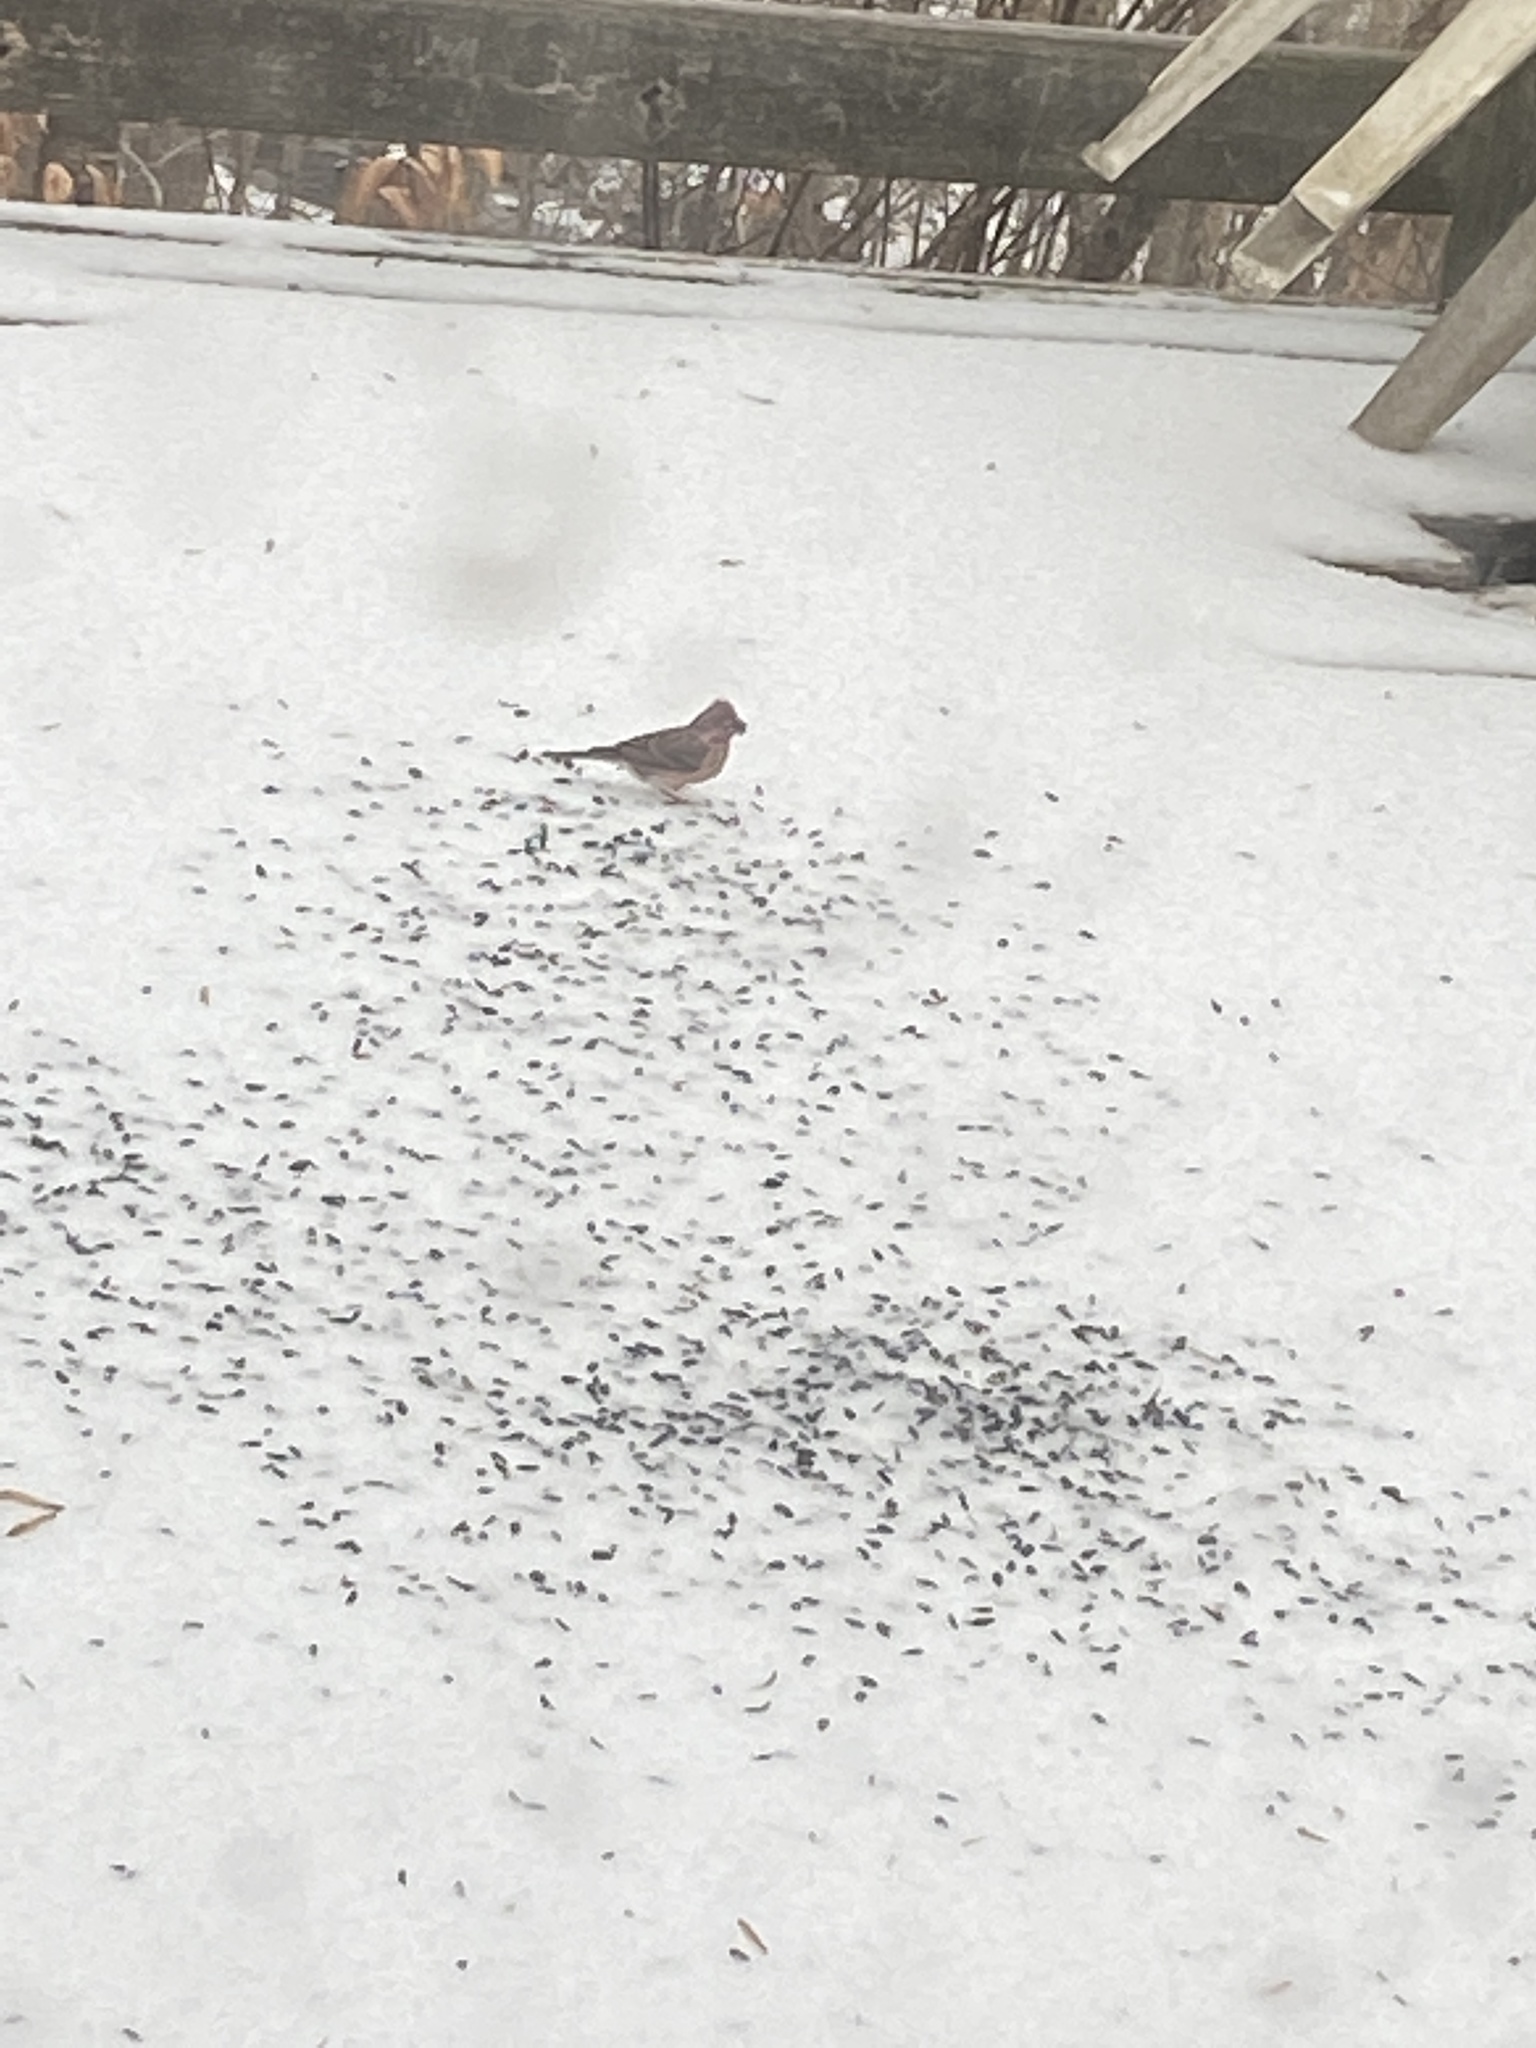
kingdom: Animalia
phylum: Chordata
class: Aves
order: Passeriformes
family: Fringillidae
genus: Haemorhous
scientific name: Haemorhous purpureus
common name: Purple finch
